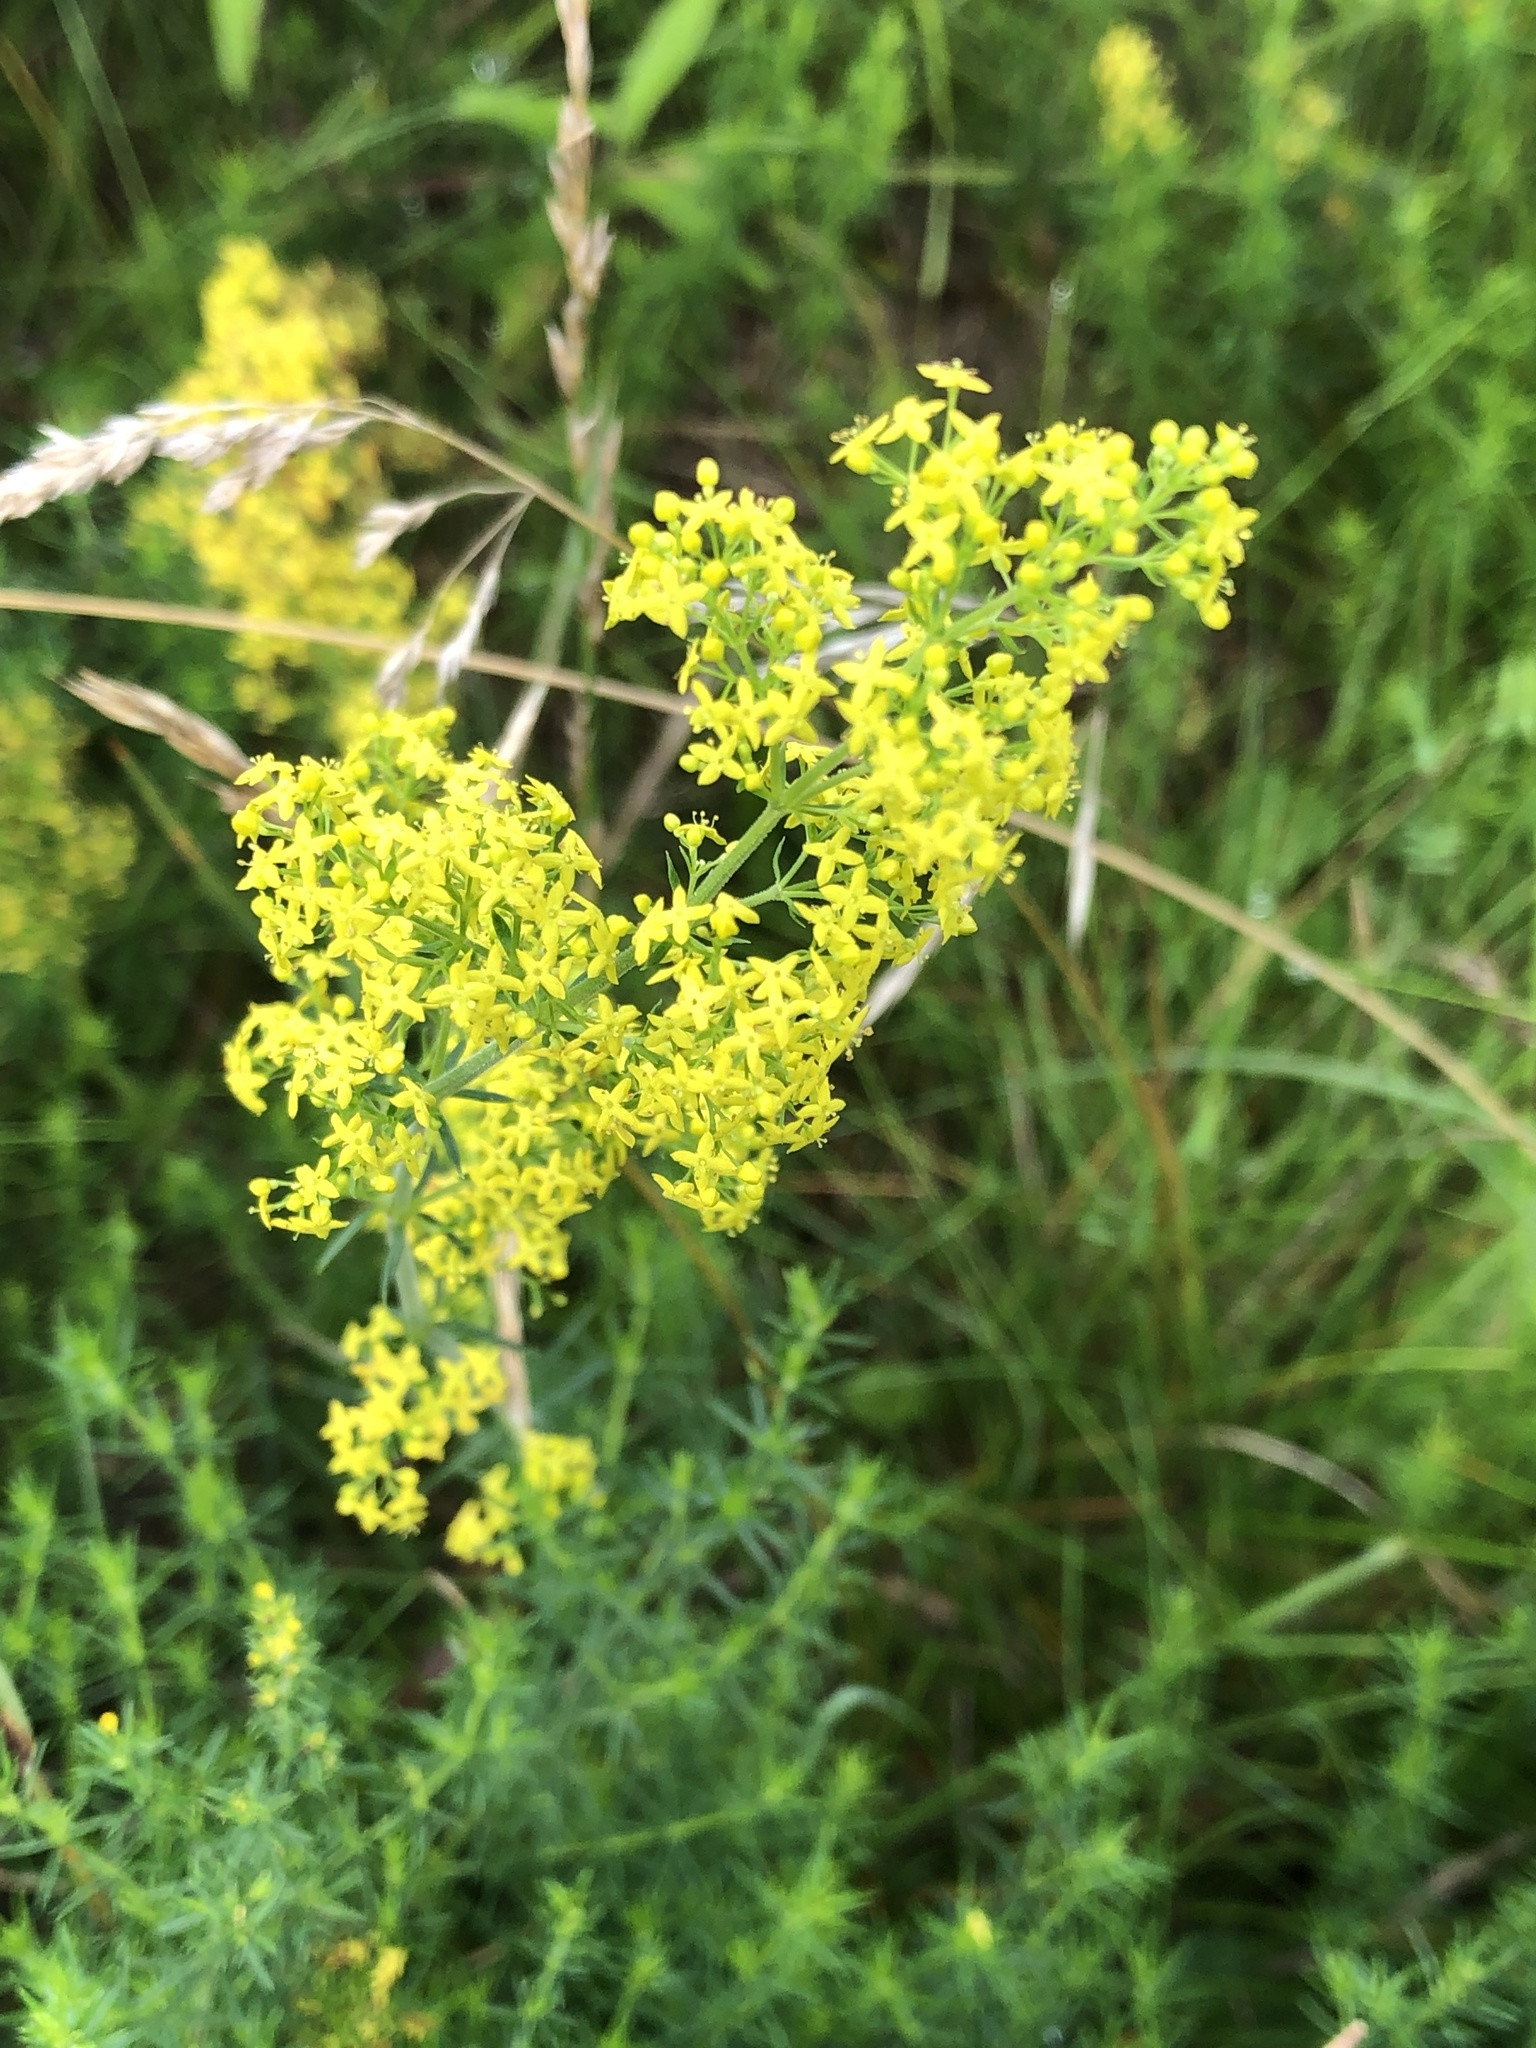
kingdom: Plantae
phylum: Tracheophyta
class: Magnoliopsida
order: Gentianales
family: Rubiaceae
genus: Galium
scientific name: Galium verum
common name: Lady's bedstraw
